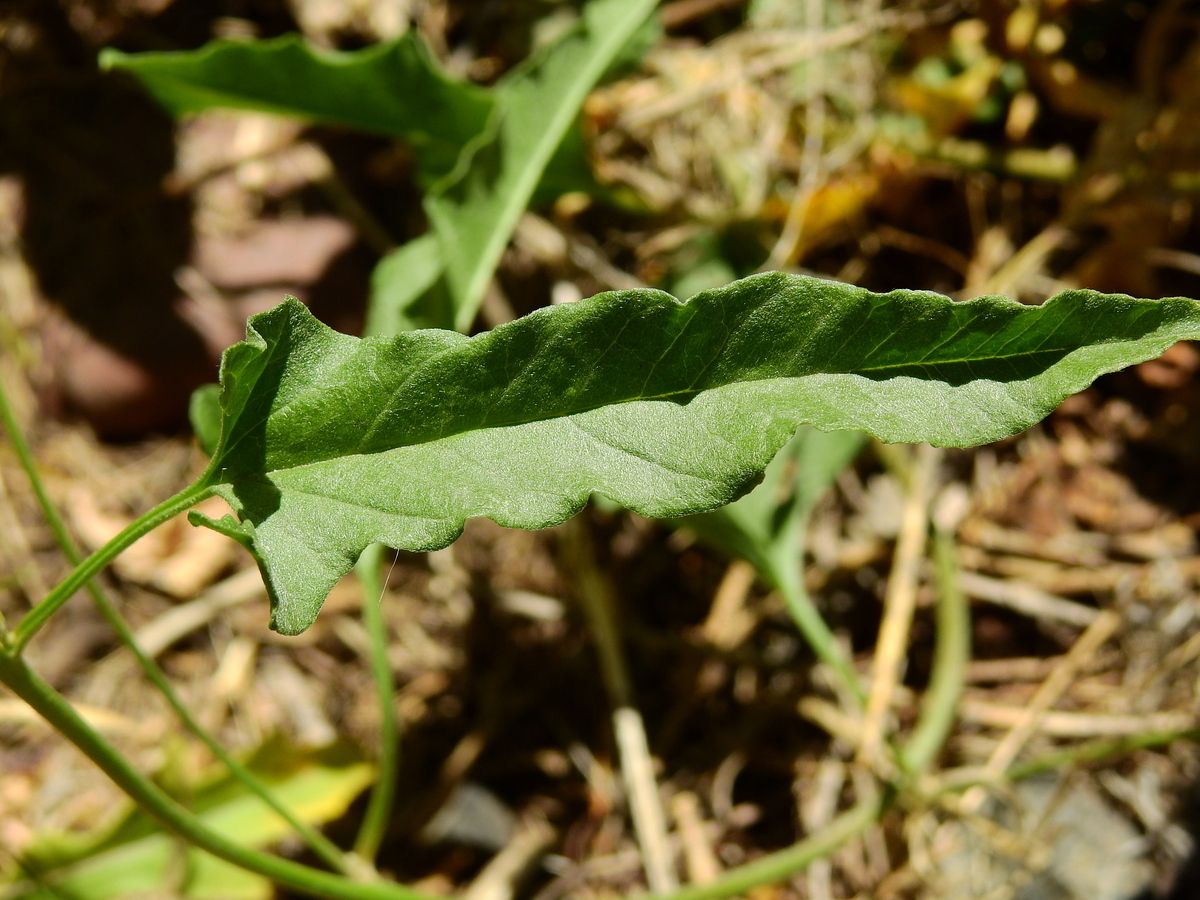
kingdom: Plantae
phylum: Tracheophyta
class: Magnoliopsida
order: Solanales
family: Convolvulaceae
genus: Convolvulus
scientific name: Convolvulus bonariensis
